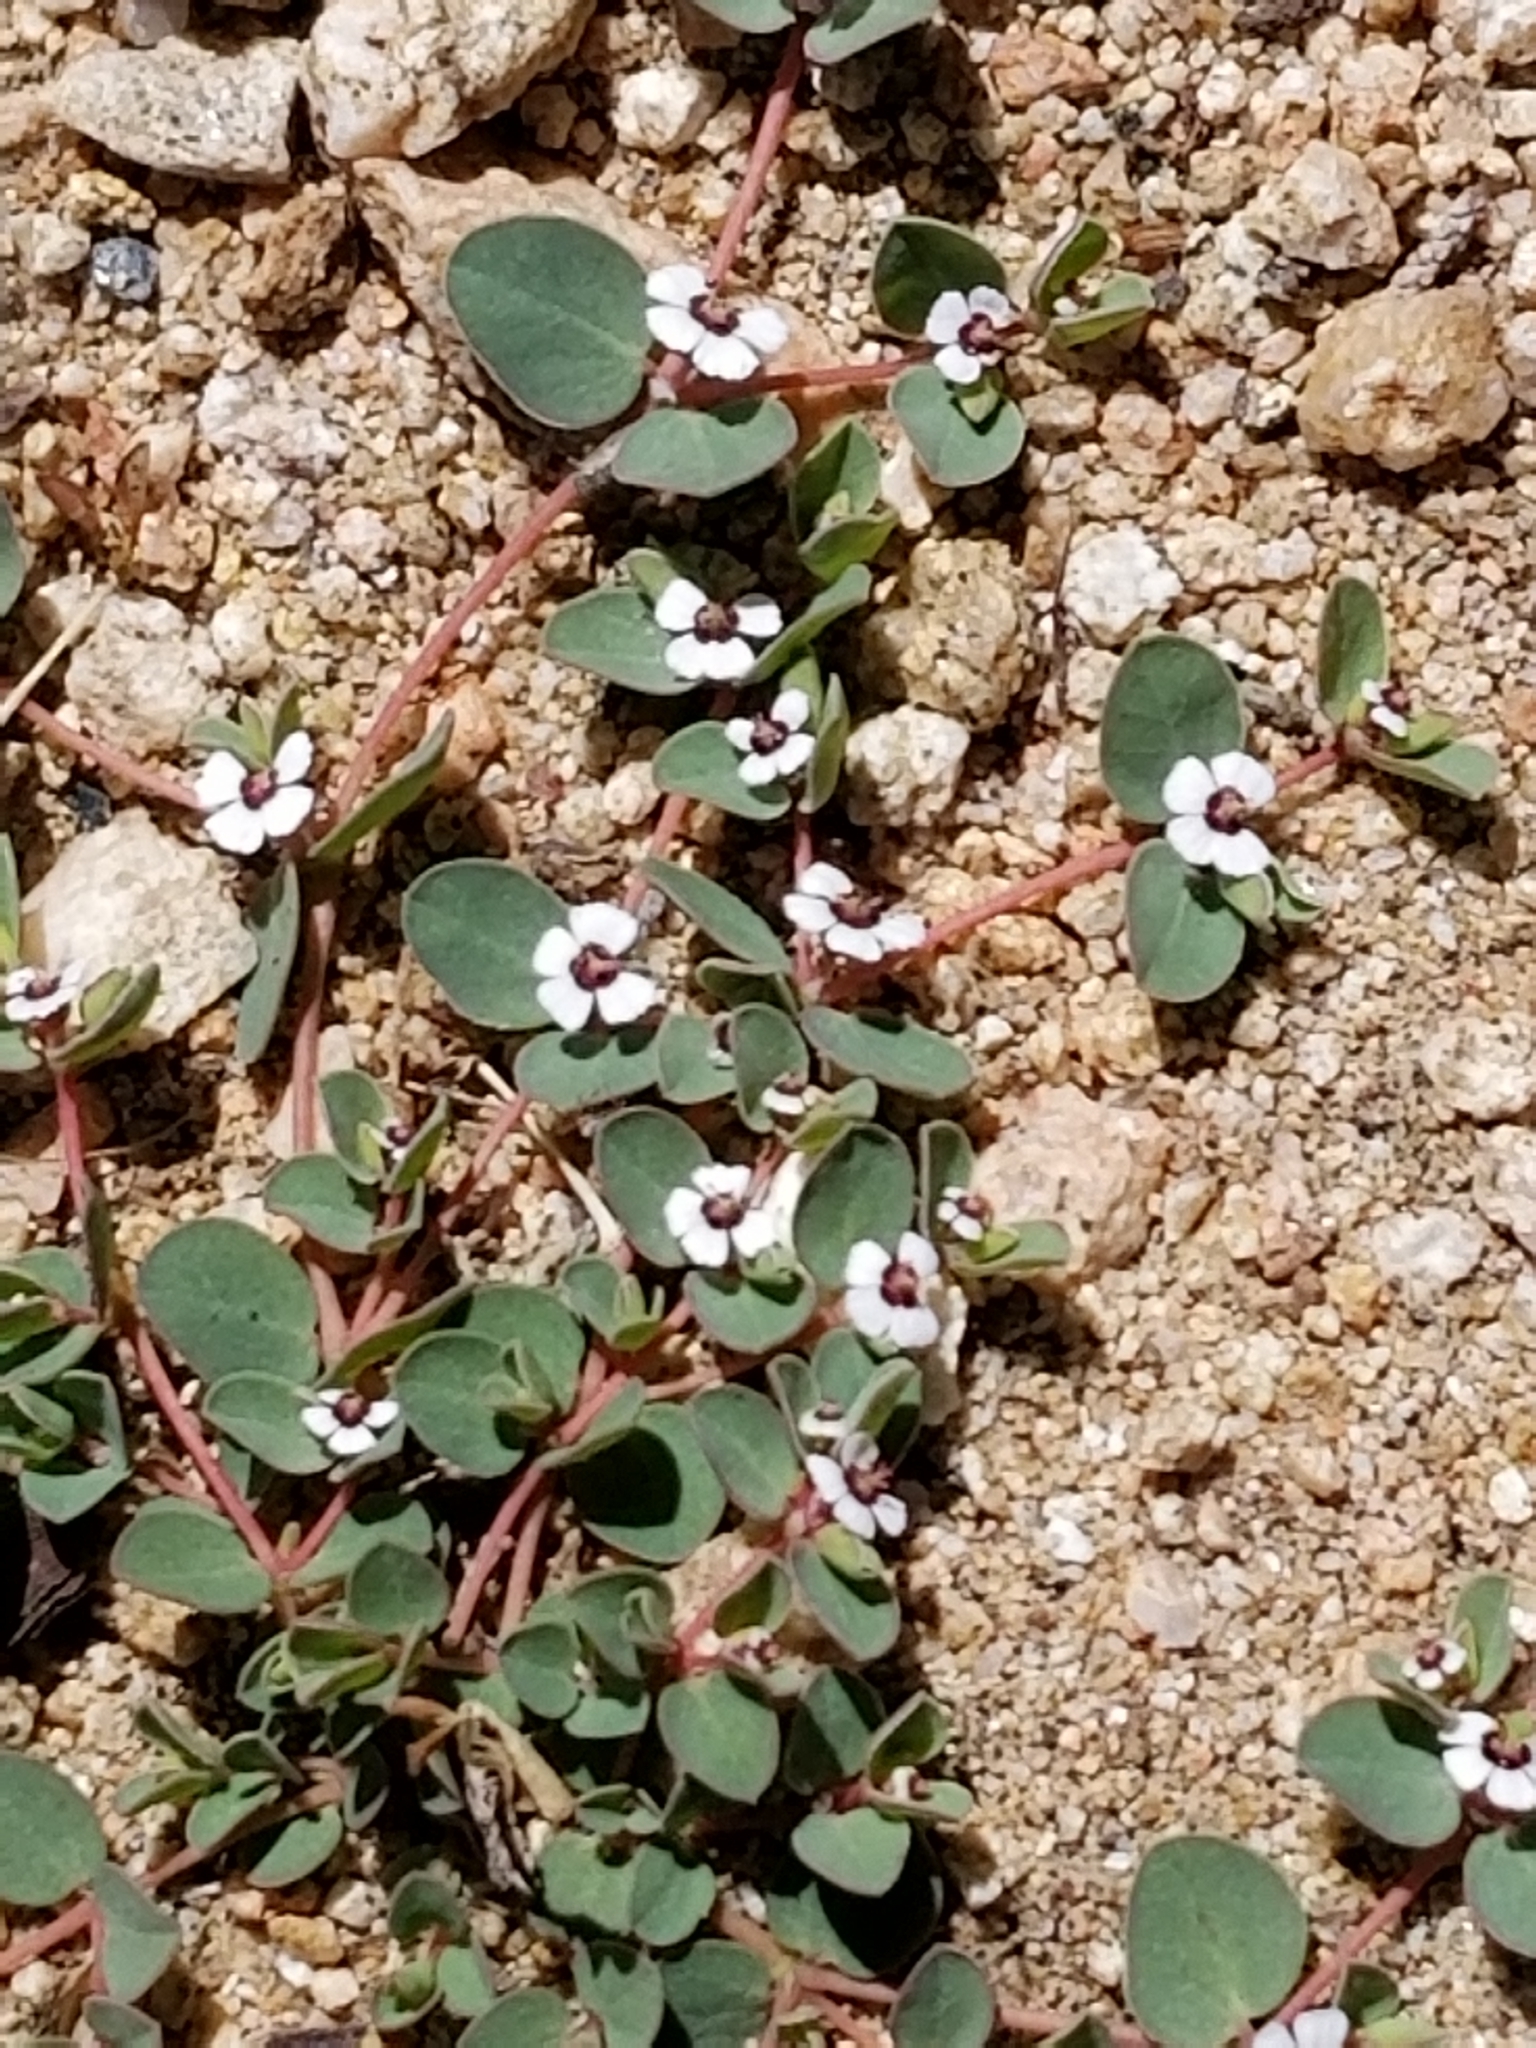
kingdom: Plantae
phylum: Tracheophyta
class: Magnoliopsida
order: Malpighiales
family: Euphorbiaceae
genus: Euphorbia
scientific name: Euphorbia albomarginata
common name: Whitemargin sandmat
